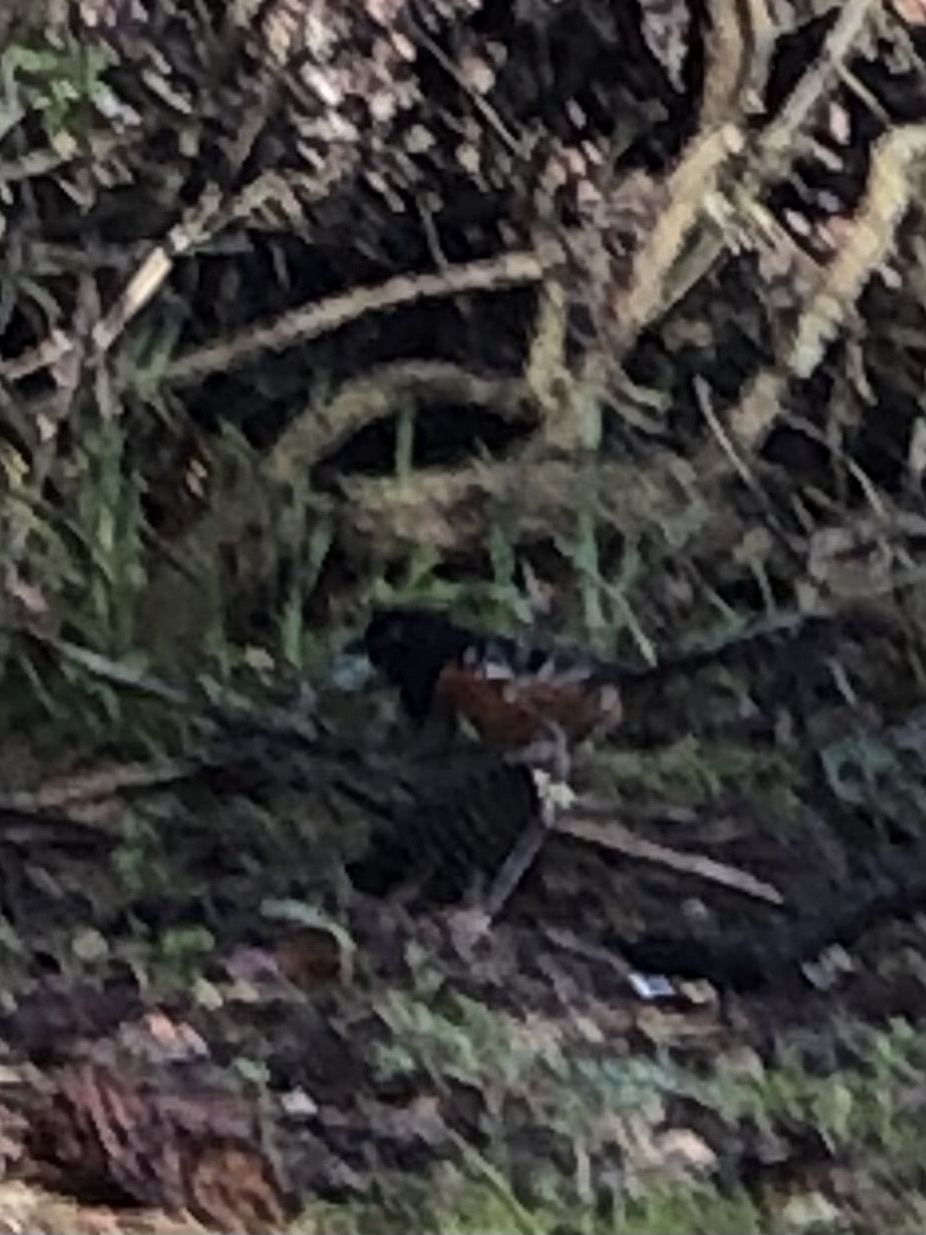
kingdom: Animalia
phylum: Chordata
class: Aves
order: Passeriformes
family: Passerellidae
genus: Pipilo
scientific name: Pipilo maculatus
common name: Spotted towhee
